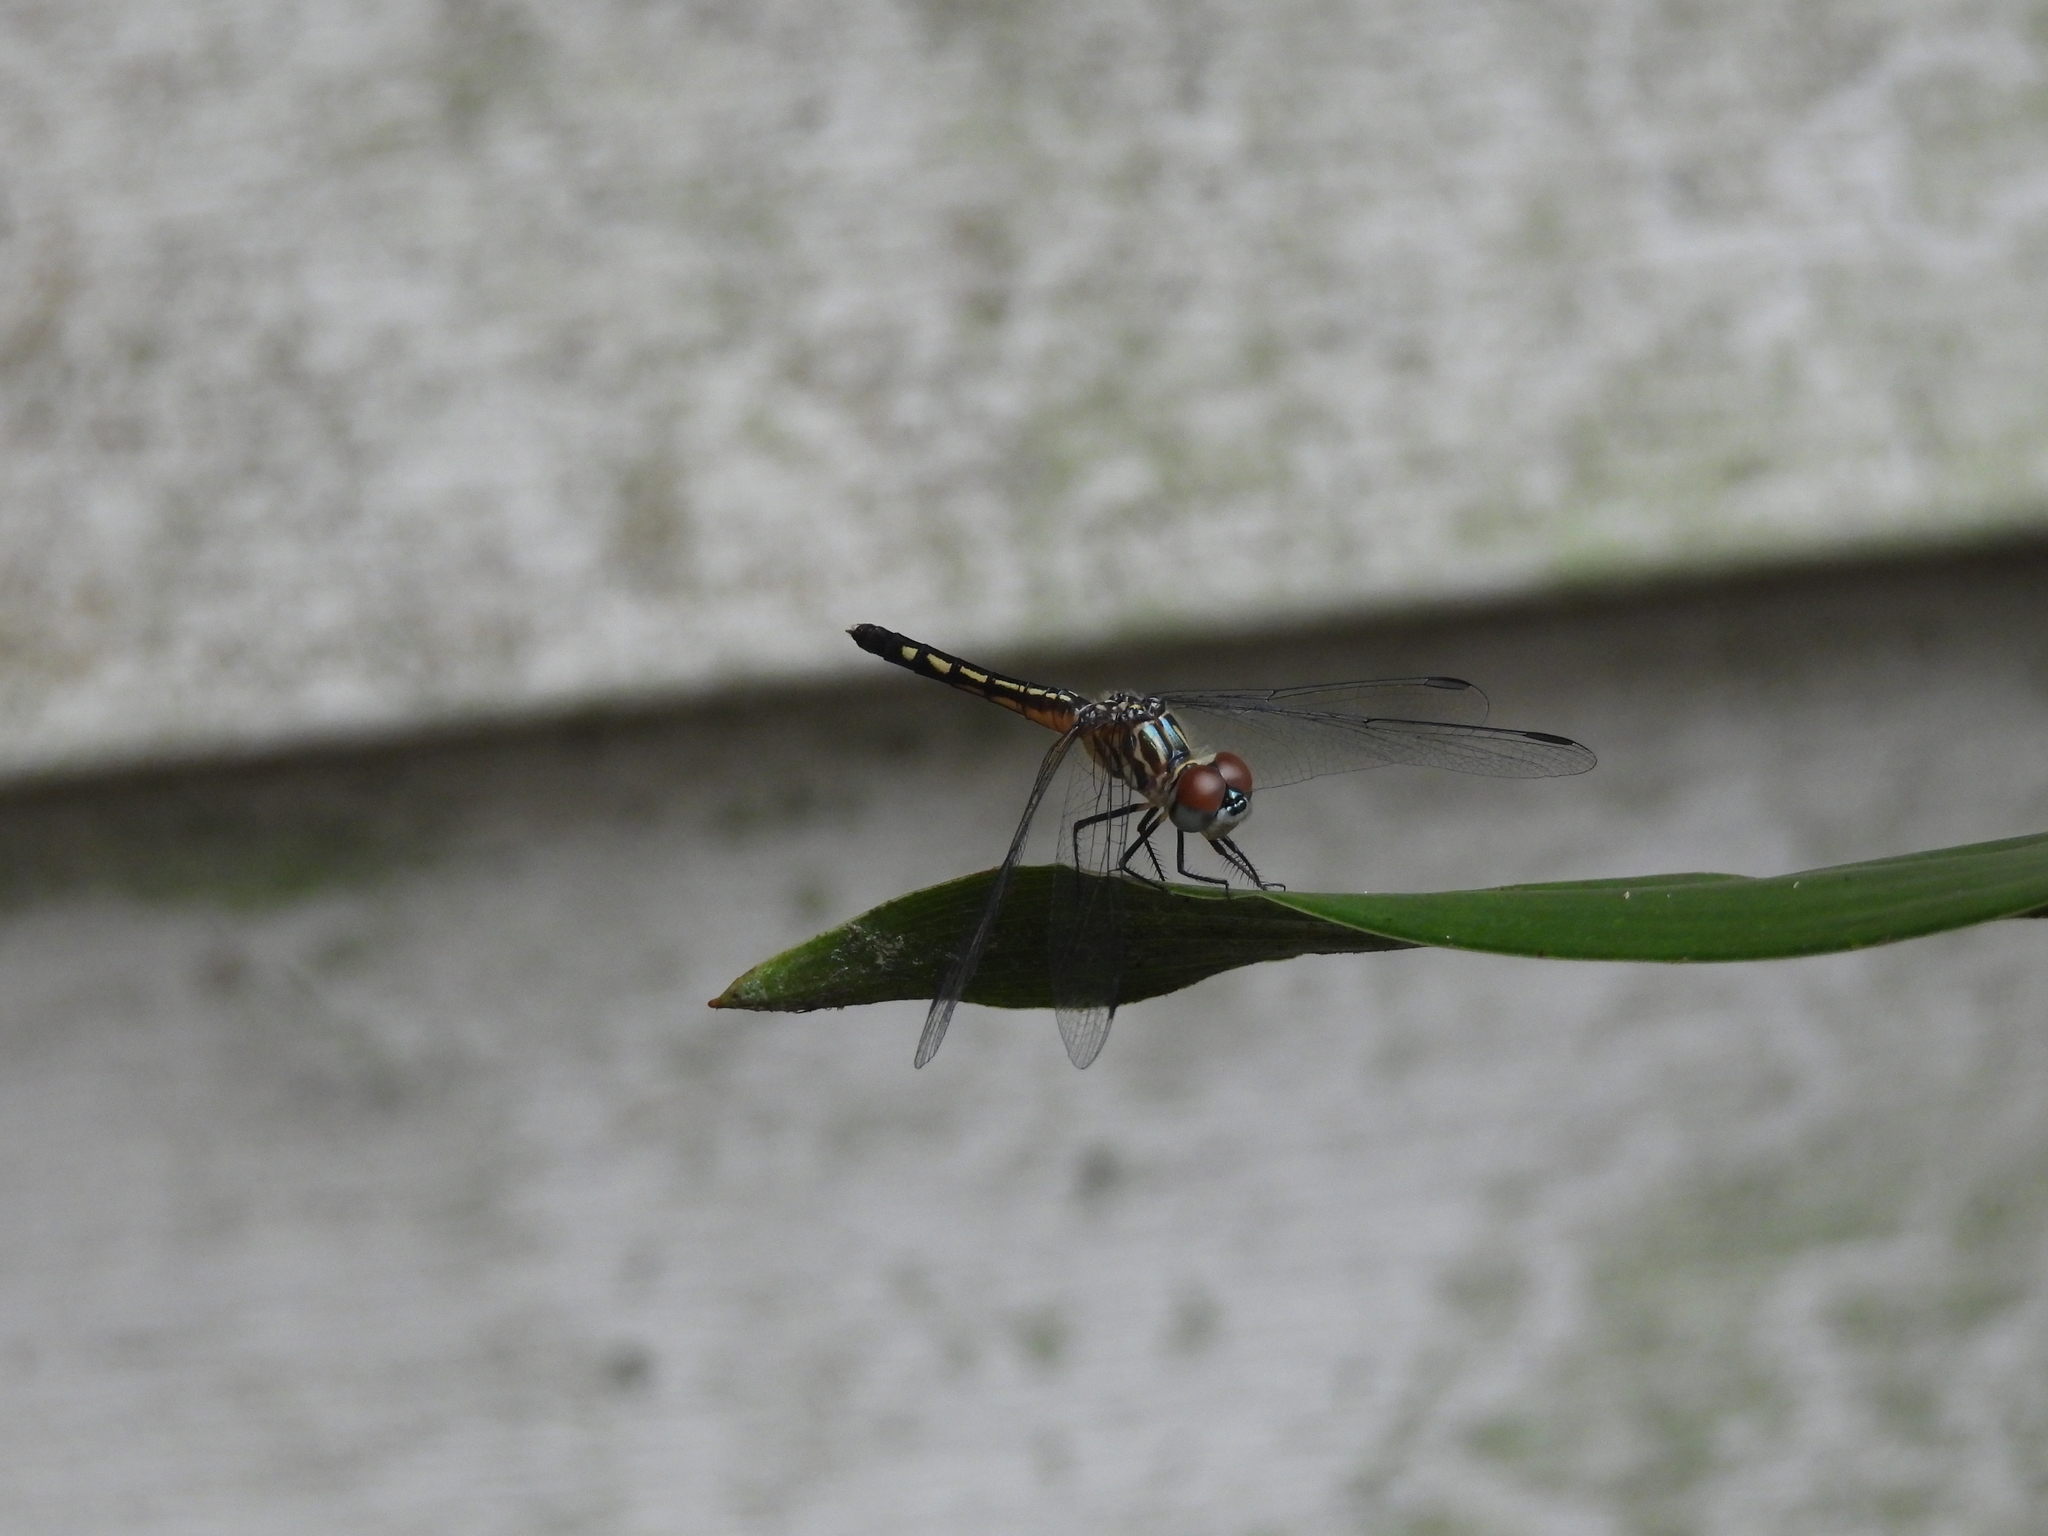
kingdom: Animalia
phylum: Arthropoda
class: Insecta
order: Odonata
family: Libellulidae
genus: Pachydiplax
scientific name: Pachydiplax longipennis
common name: Blue dasher
